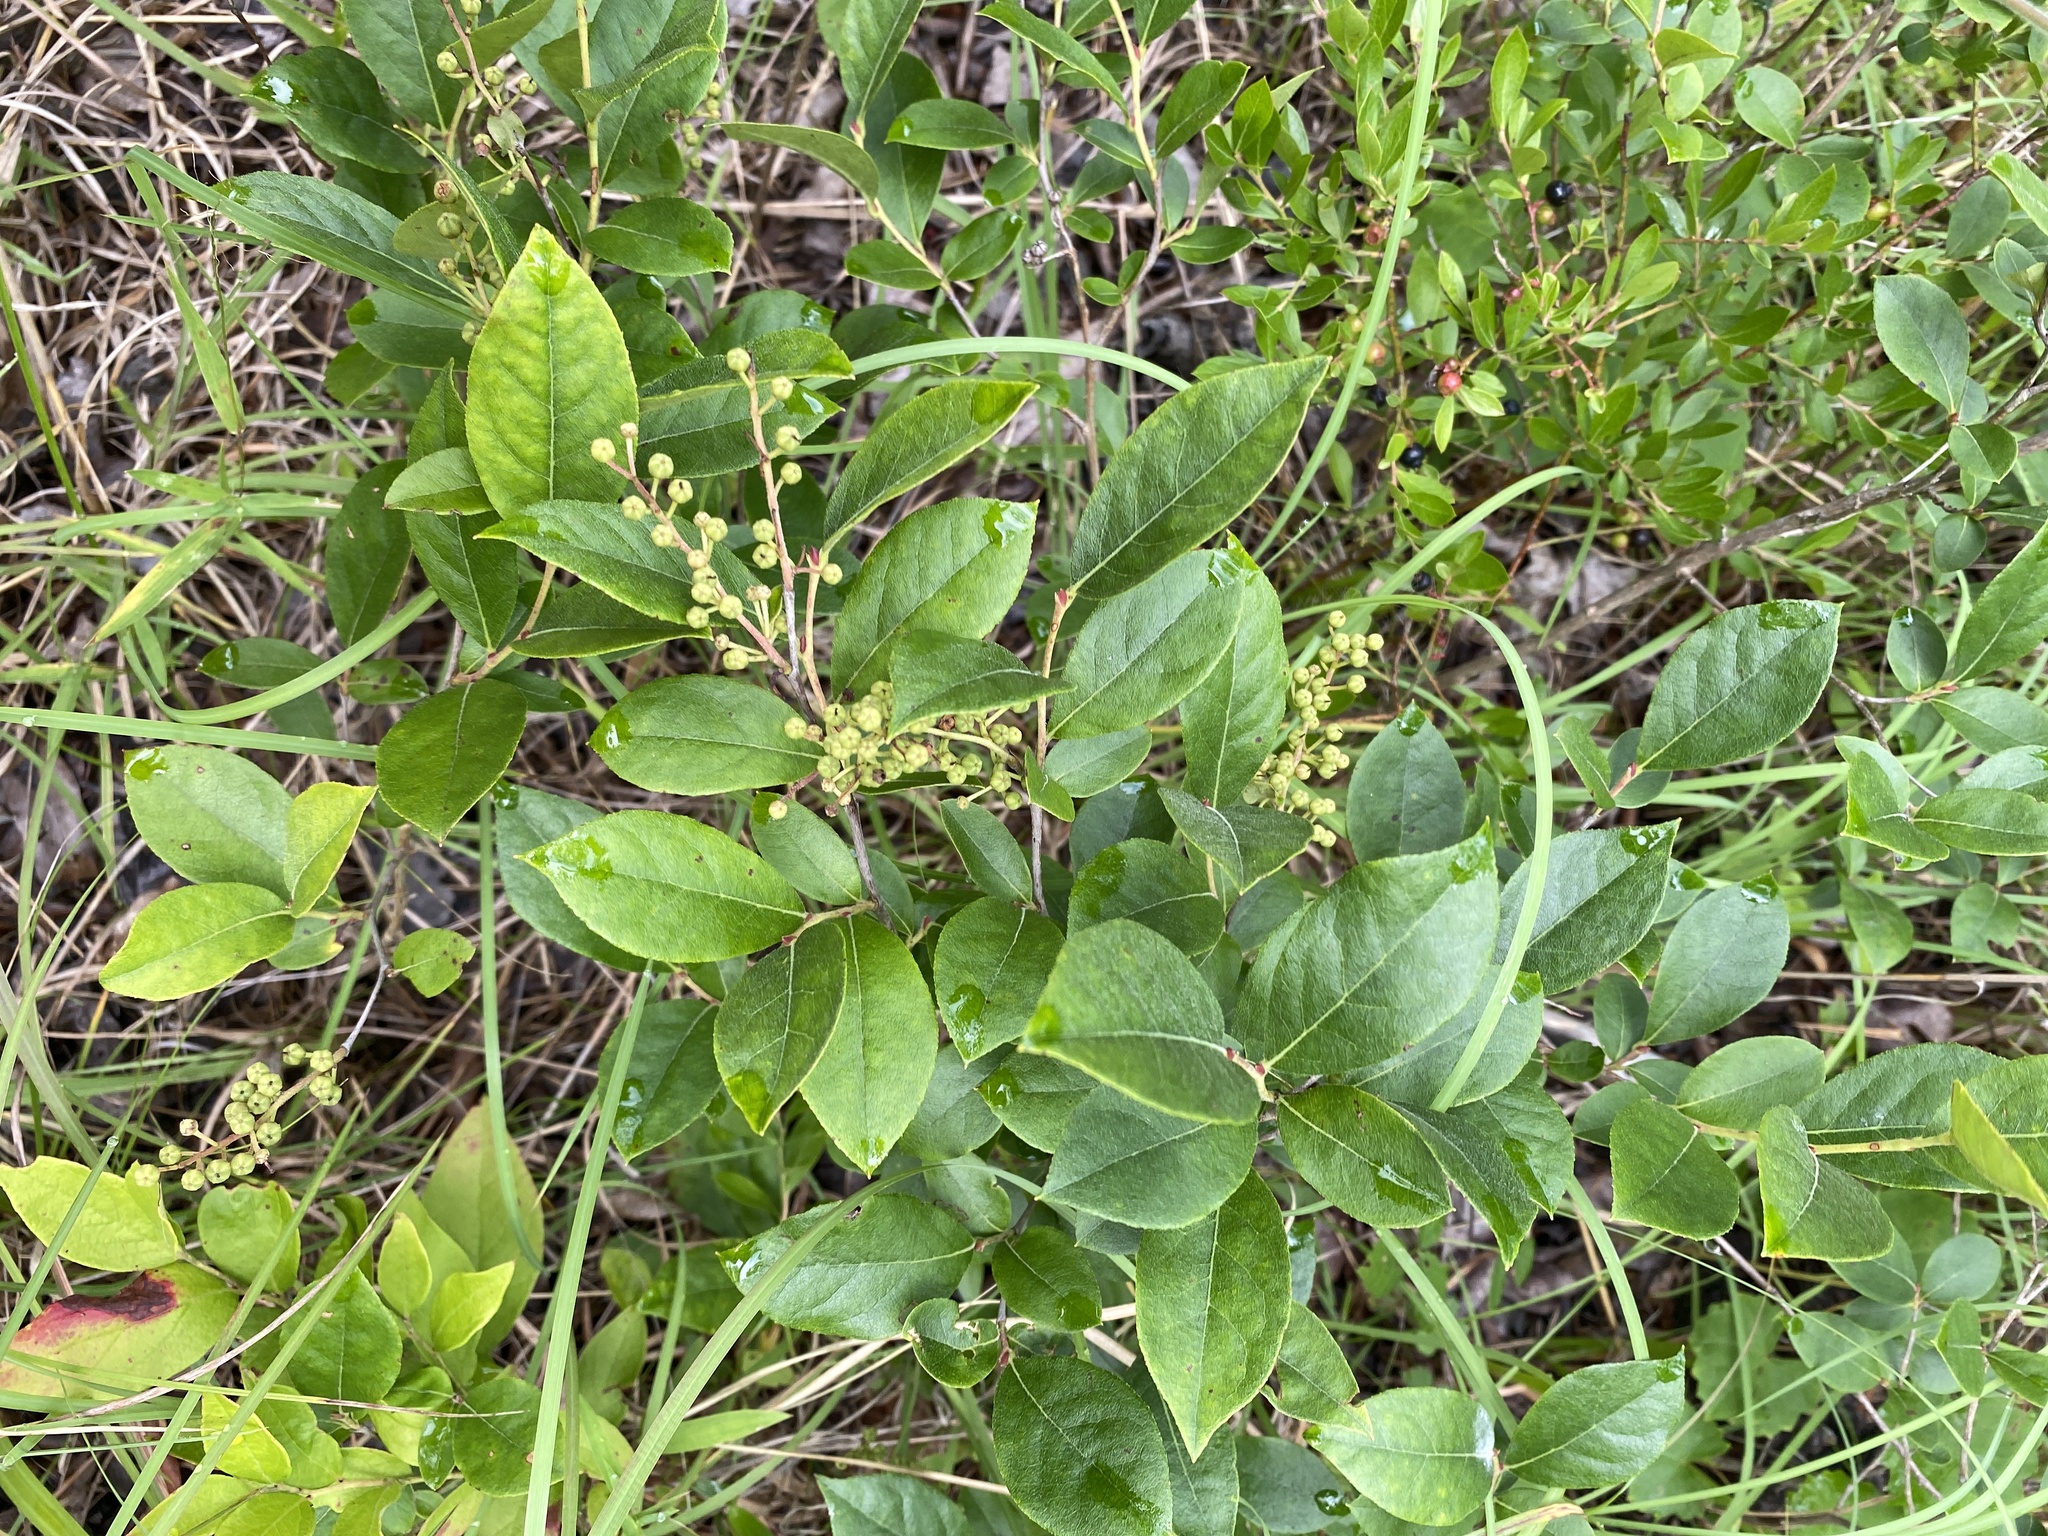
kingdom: Plantae
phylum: Tracheophyta
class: Magnoliopsida
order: Ericales
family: Ericaceae
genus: Lyonia
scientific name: Lyonia ligustrina
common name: Maleberry
